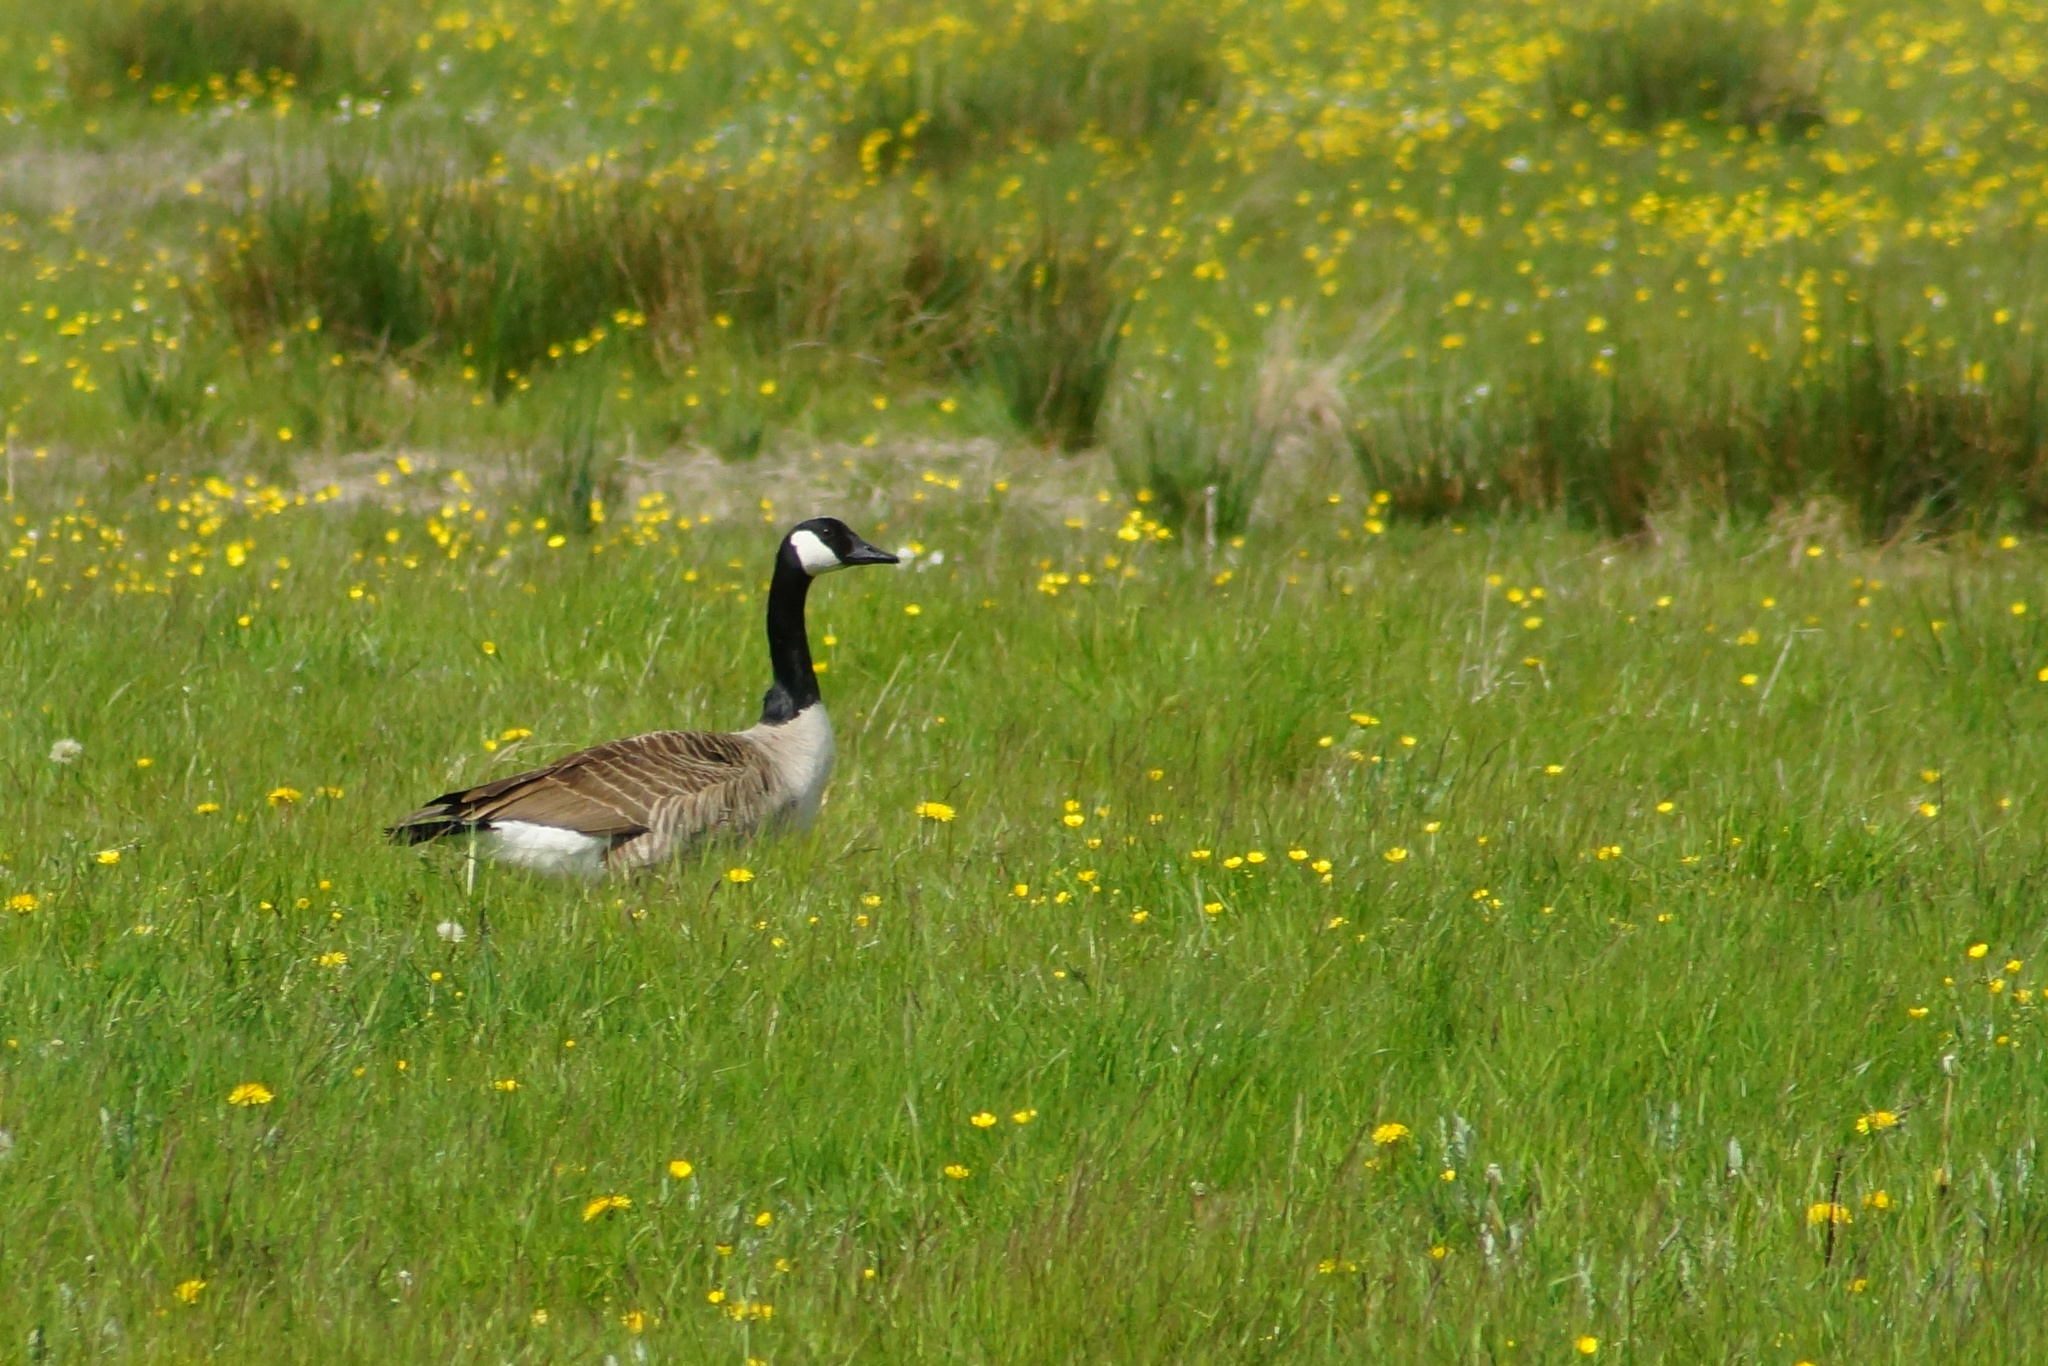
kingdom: Animalia
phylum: Chordata
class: Aves
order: Anseriformes
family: Anatidae
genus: Branta
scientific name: Branta canadensis
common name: Canada goose
